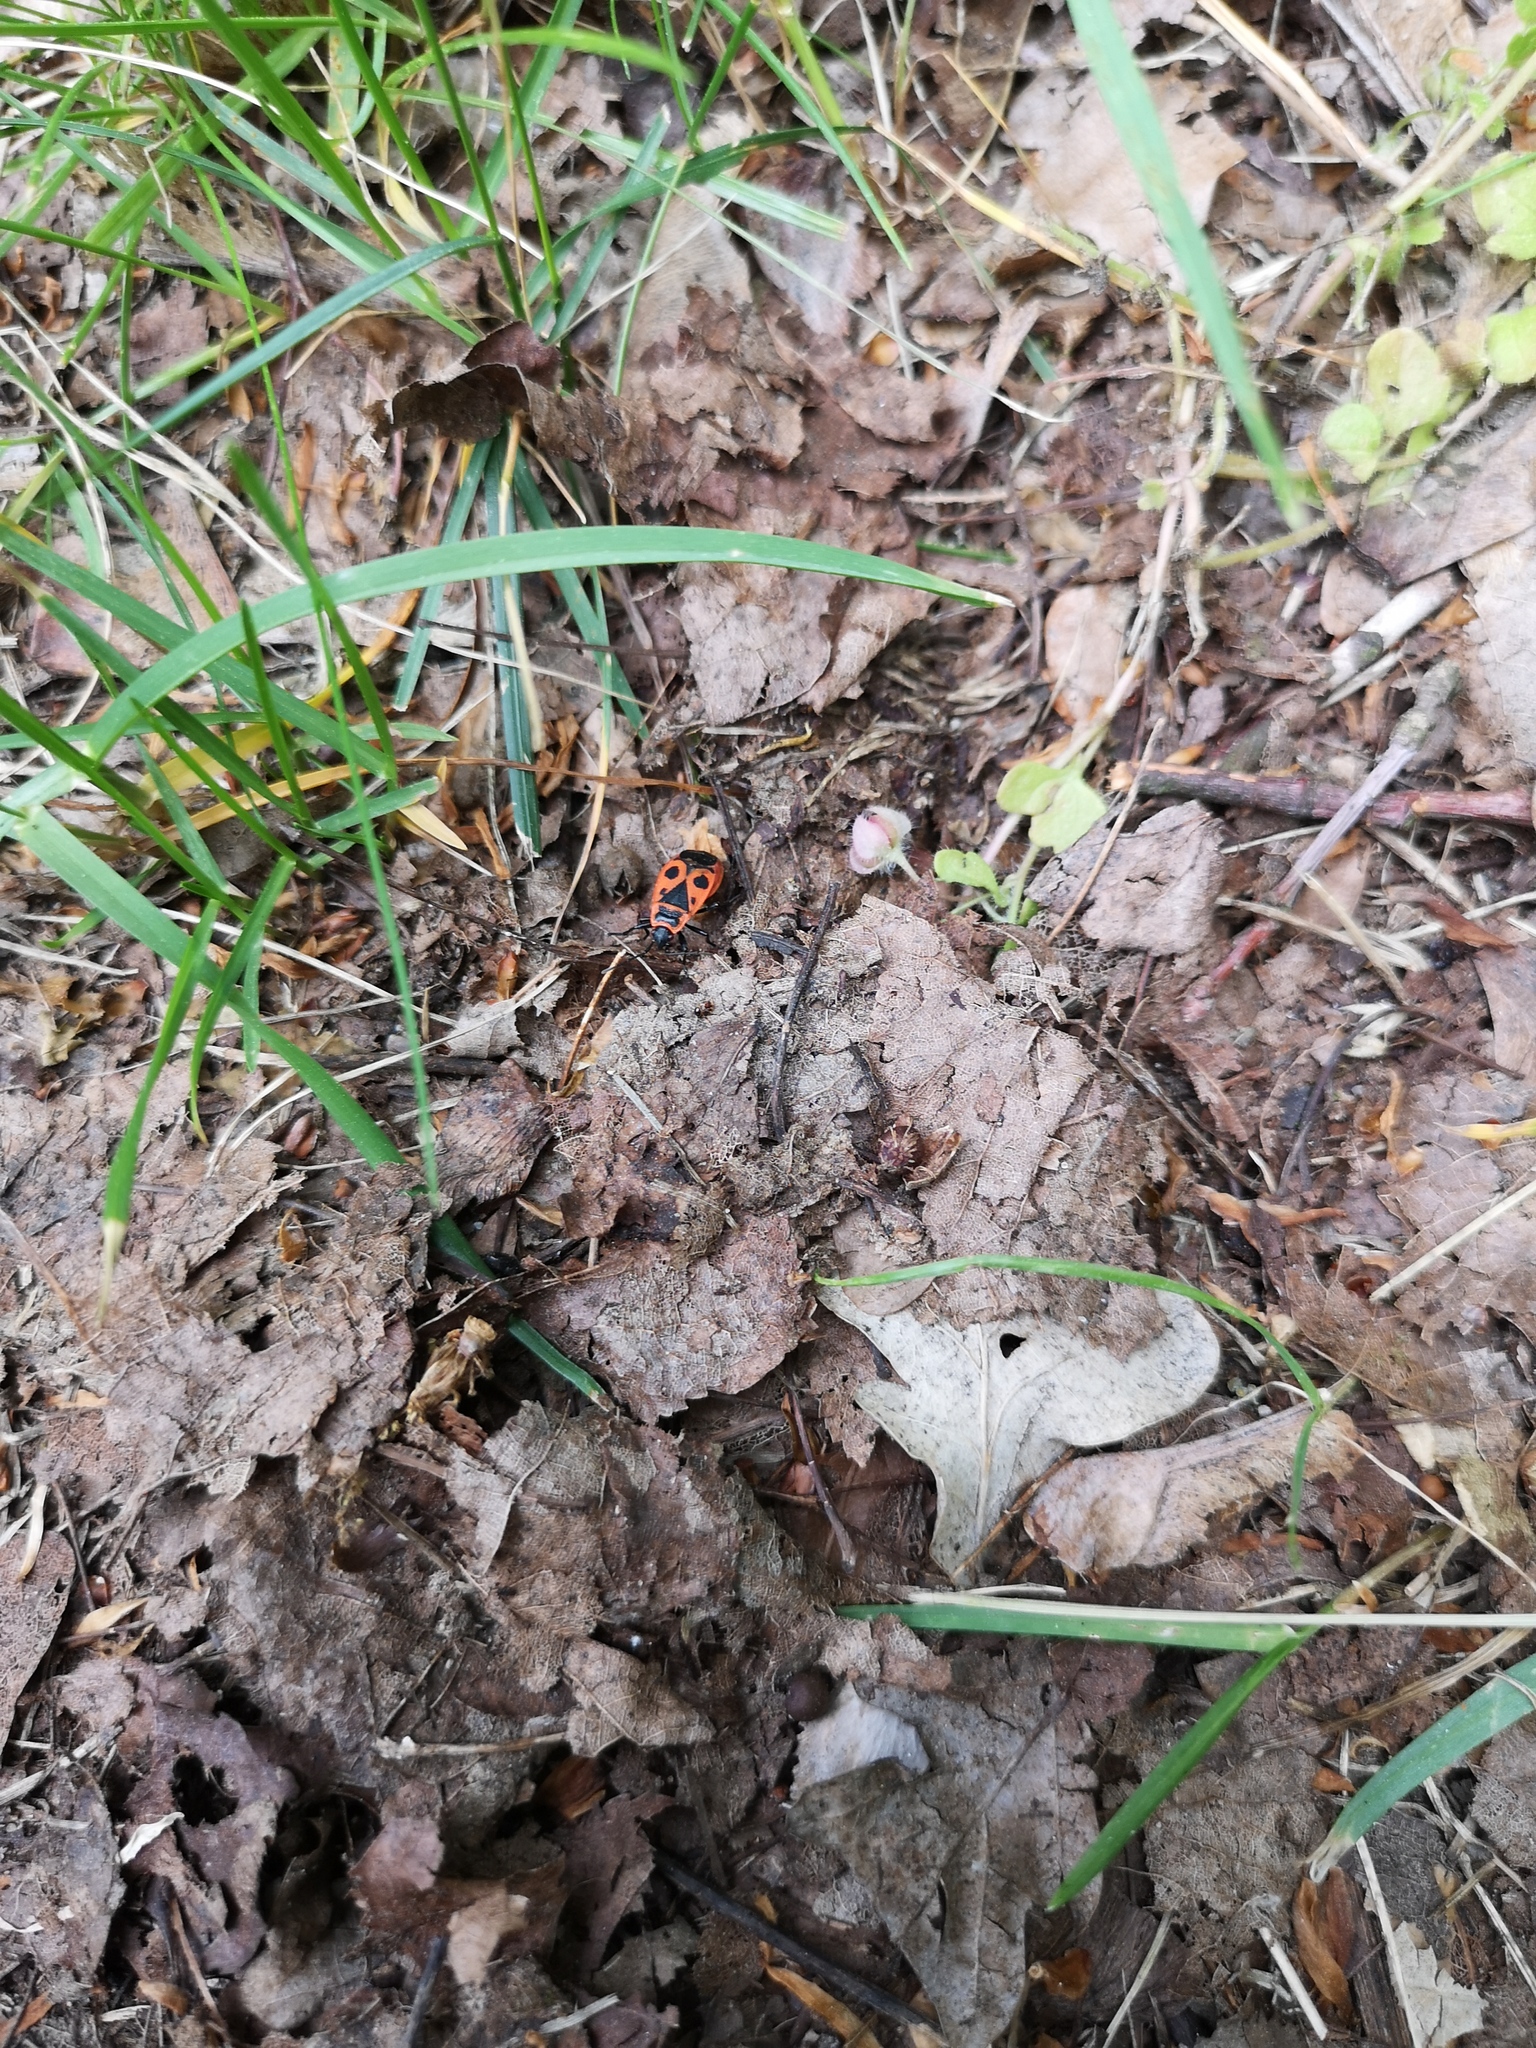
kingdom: Animalia
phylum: Arthropoda
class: Insecta
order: Hemiptera
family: Pyrrhocoridae
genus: Pyrrhocoris
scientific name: Pyrrhocoris apterus
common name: Firebug
